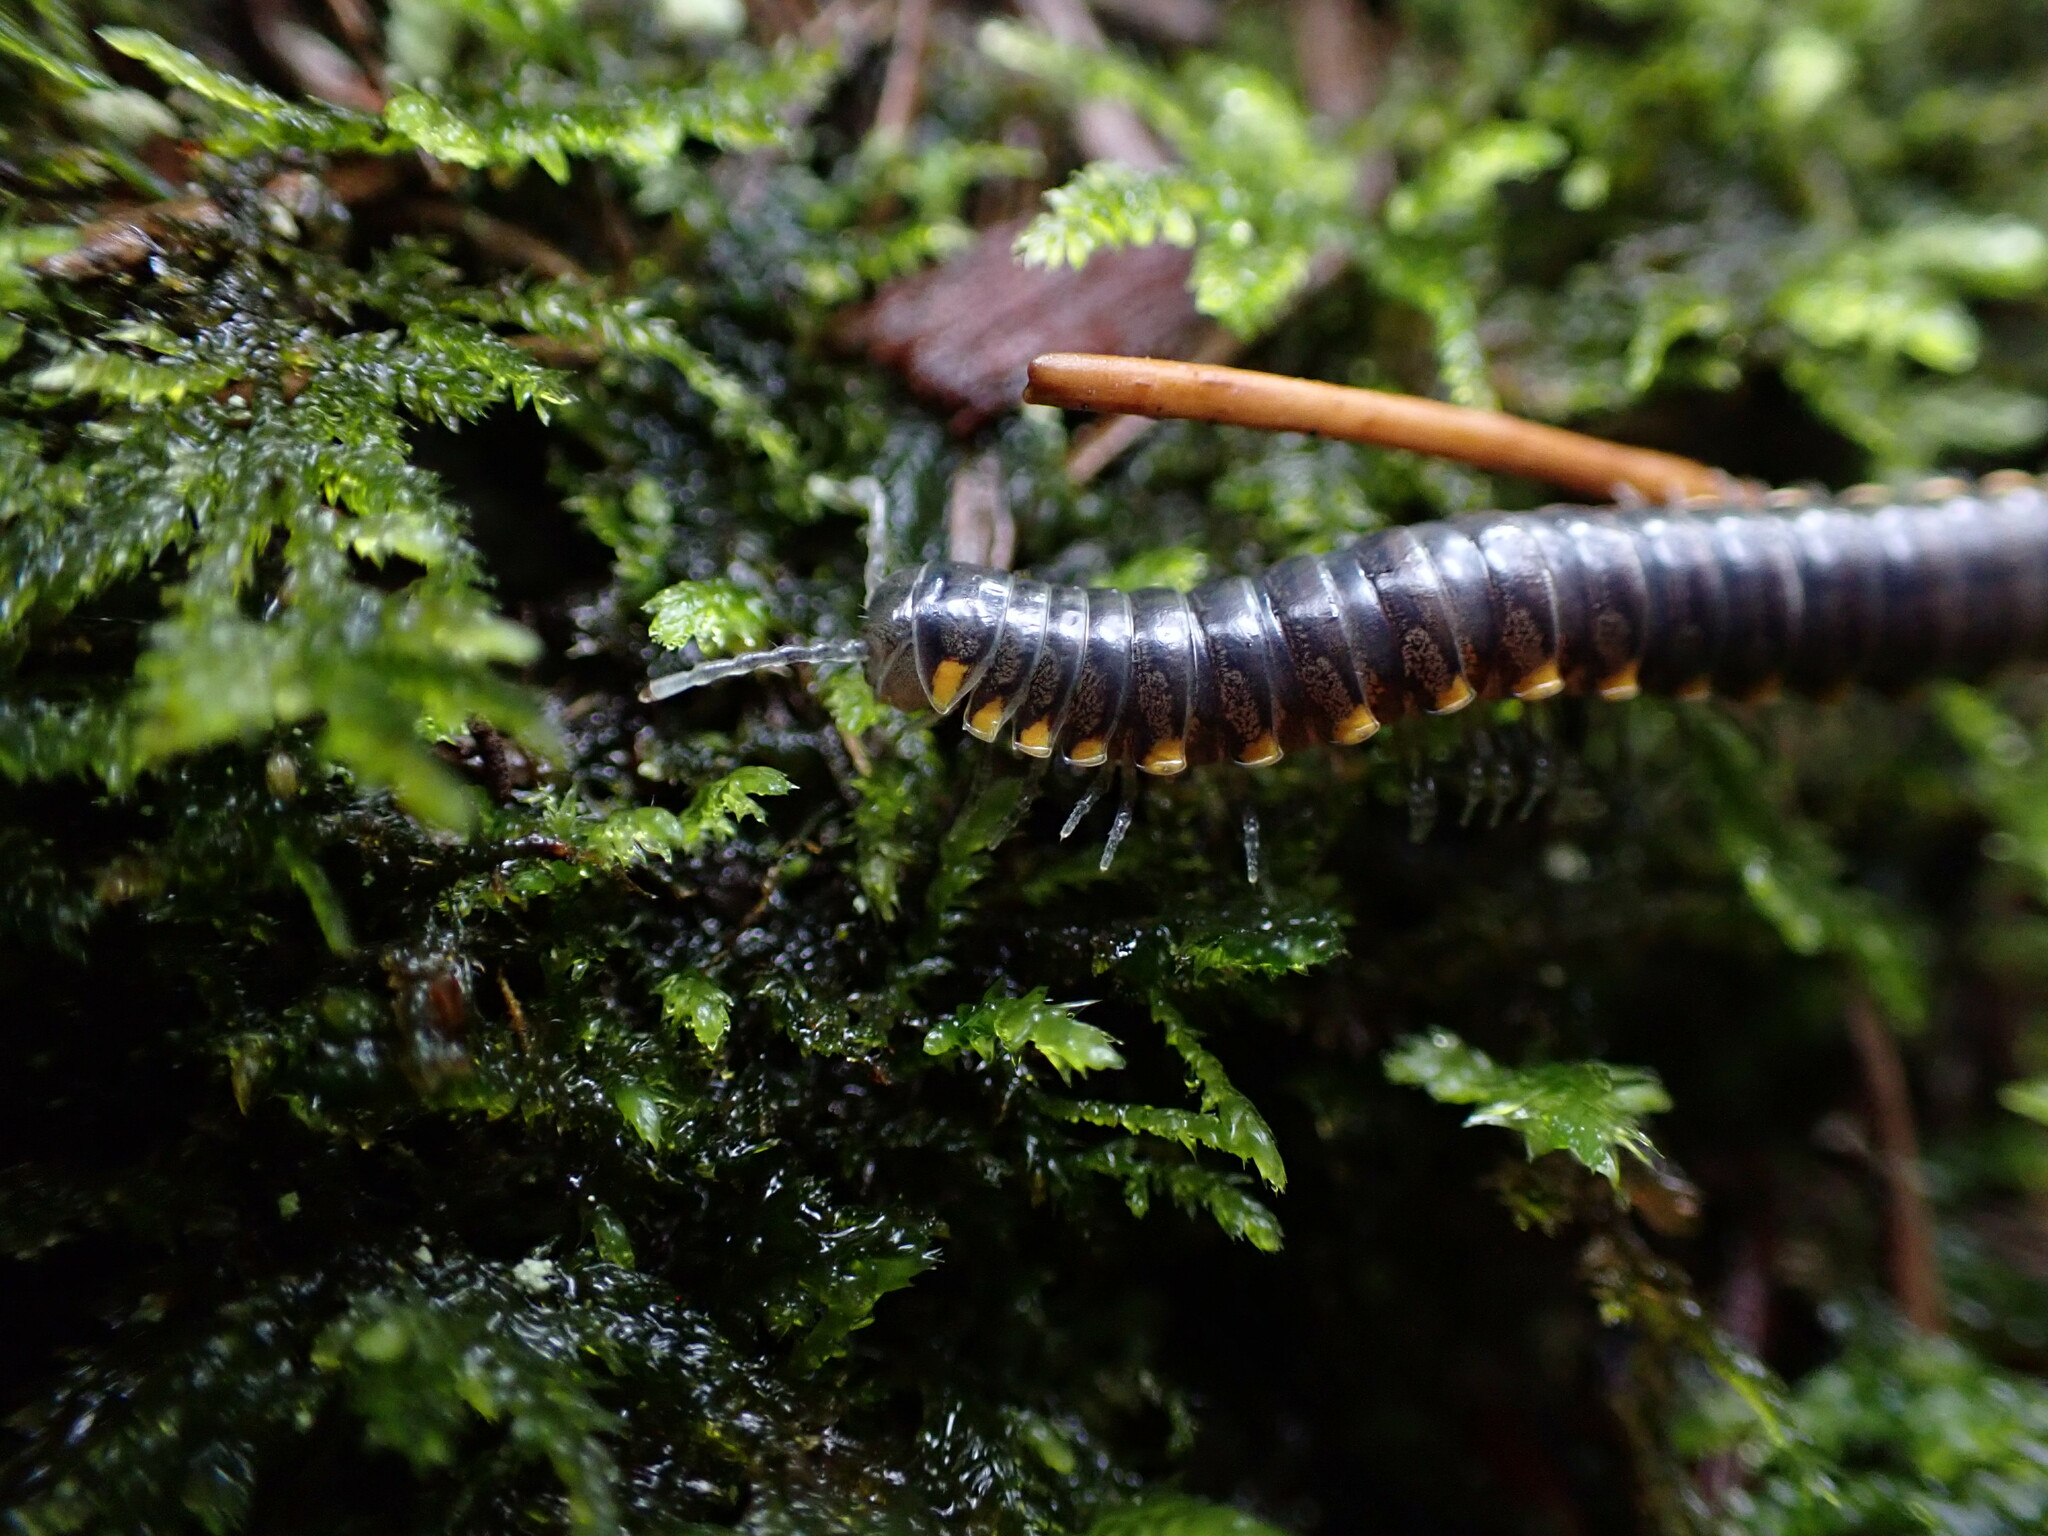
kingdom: Animalia
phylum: Arthropoda
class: Diplopoda
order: Polydesmida
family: Xystodesmidae
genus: Harpaphe
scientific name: Harpaphe haydeniana
